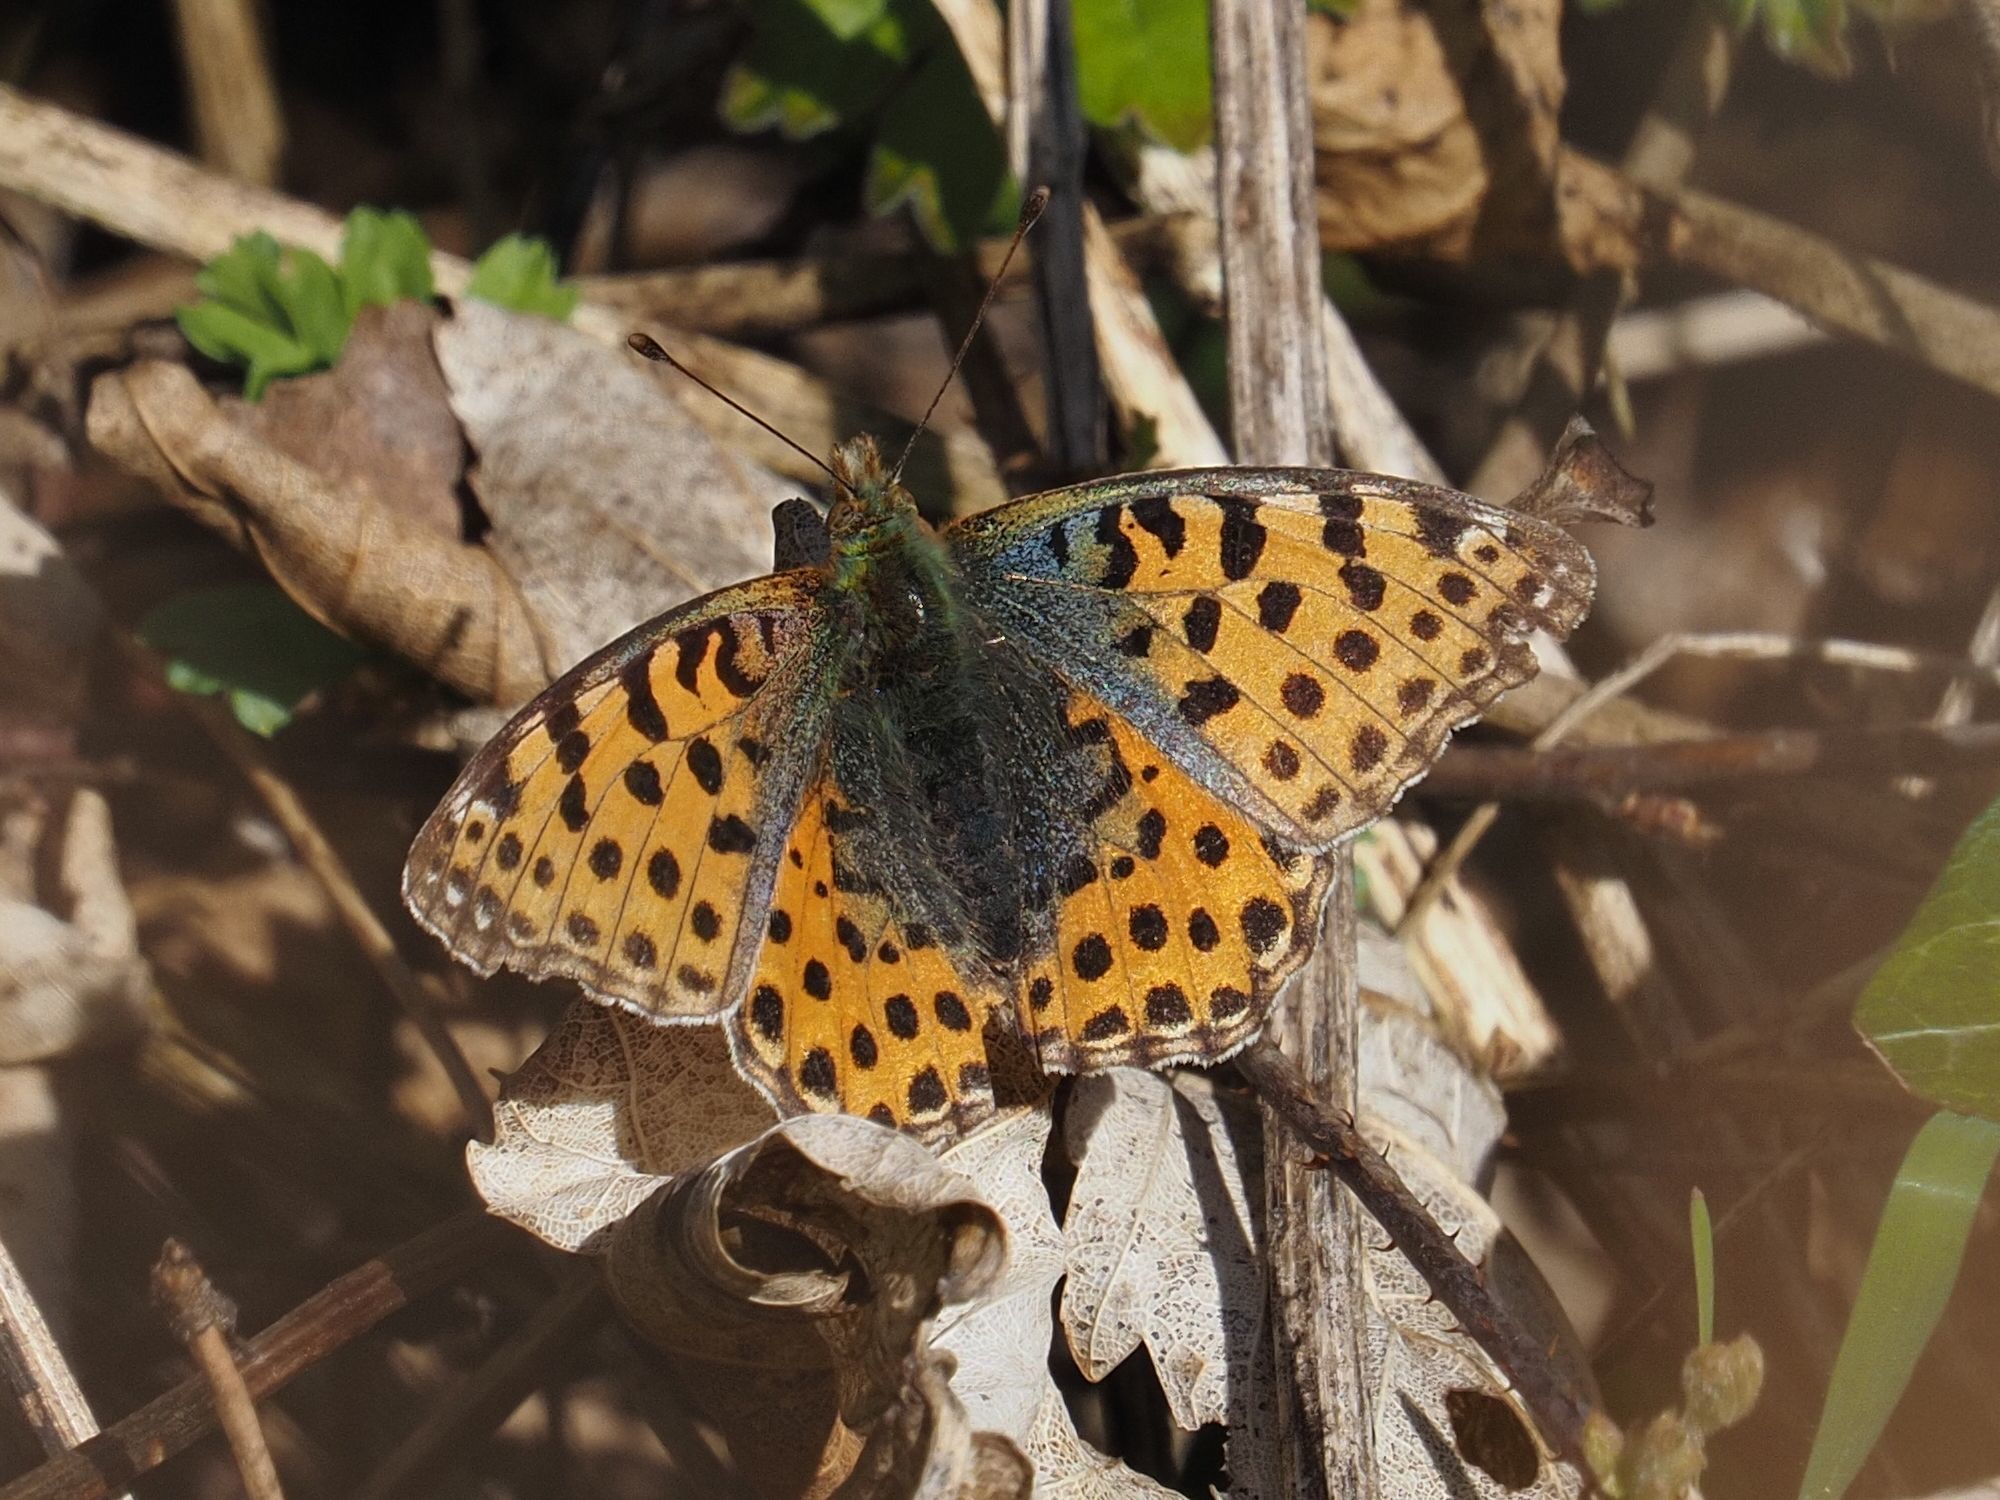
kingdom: Animalia
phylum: Arthropoda
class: Insecta
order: Lepidoptera
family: Nymphalidae
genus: Issoria
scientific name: Issoria lathonia
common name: Queen of spain fritillary
